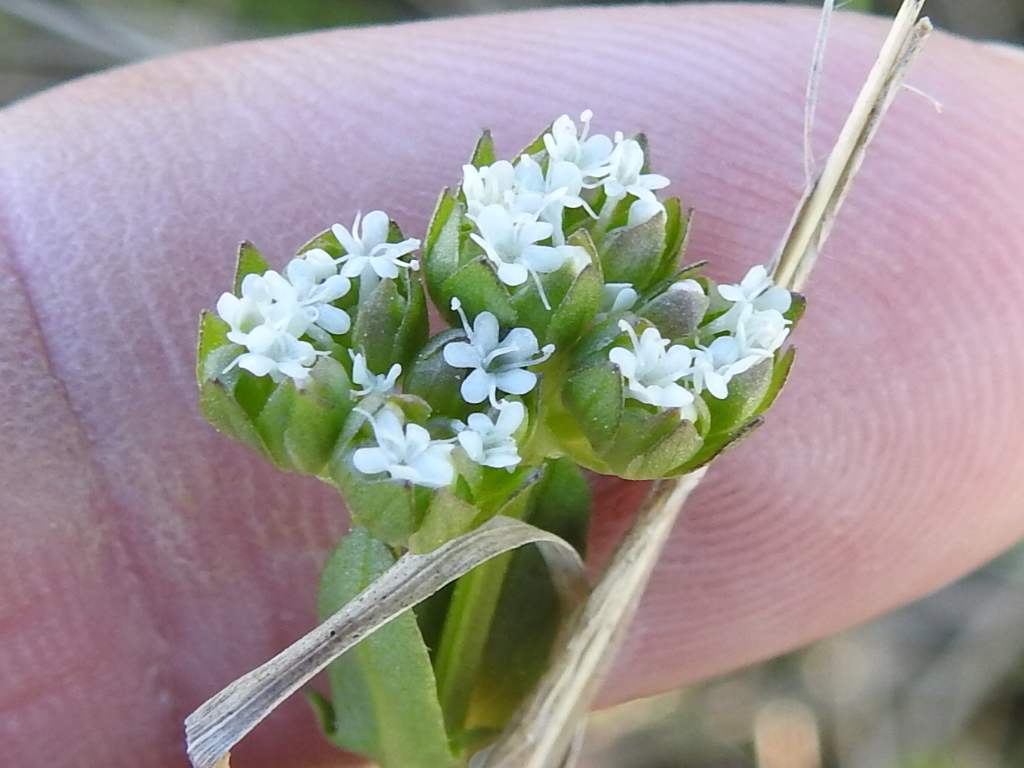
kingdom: Plantae
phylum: Tracheophyta
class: Magnoliopsida
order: Dipsacales
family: Caprifoliaceae
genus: Valerianella
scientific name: Valerianella radiata
